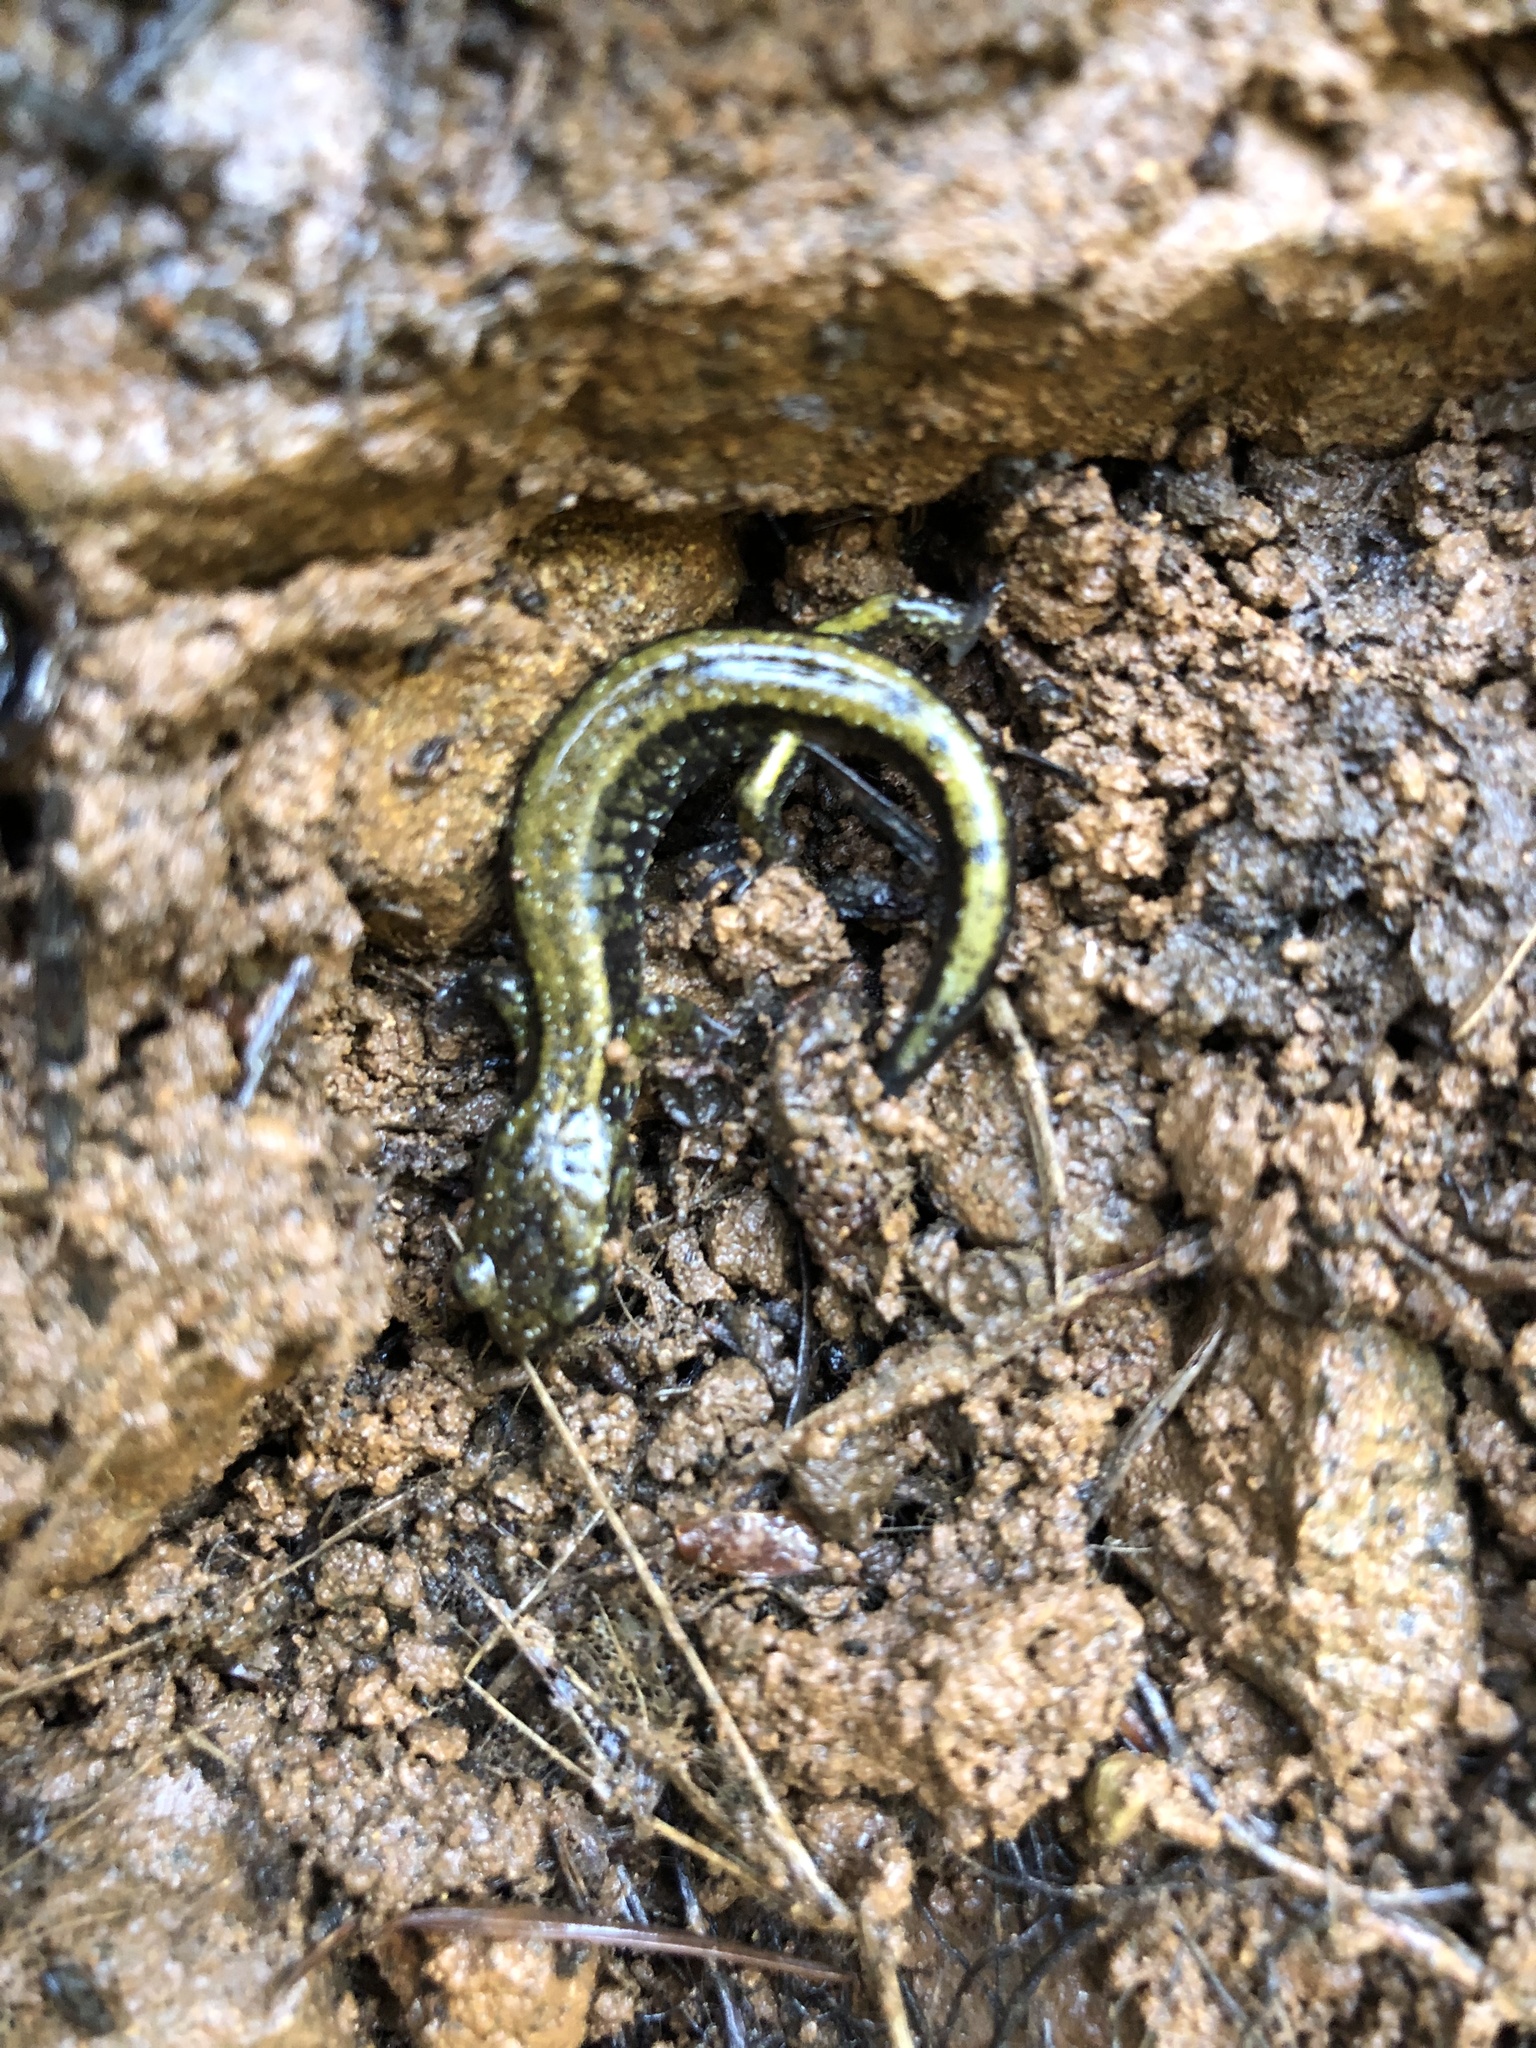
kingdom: Animalia
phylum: Chordata
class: Amphibia
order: Caudata
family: Plethodontidae
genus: Plethodon
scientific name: Plethodon dunni
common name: Dunn's salamander
